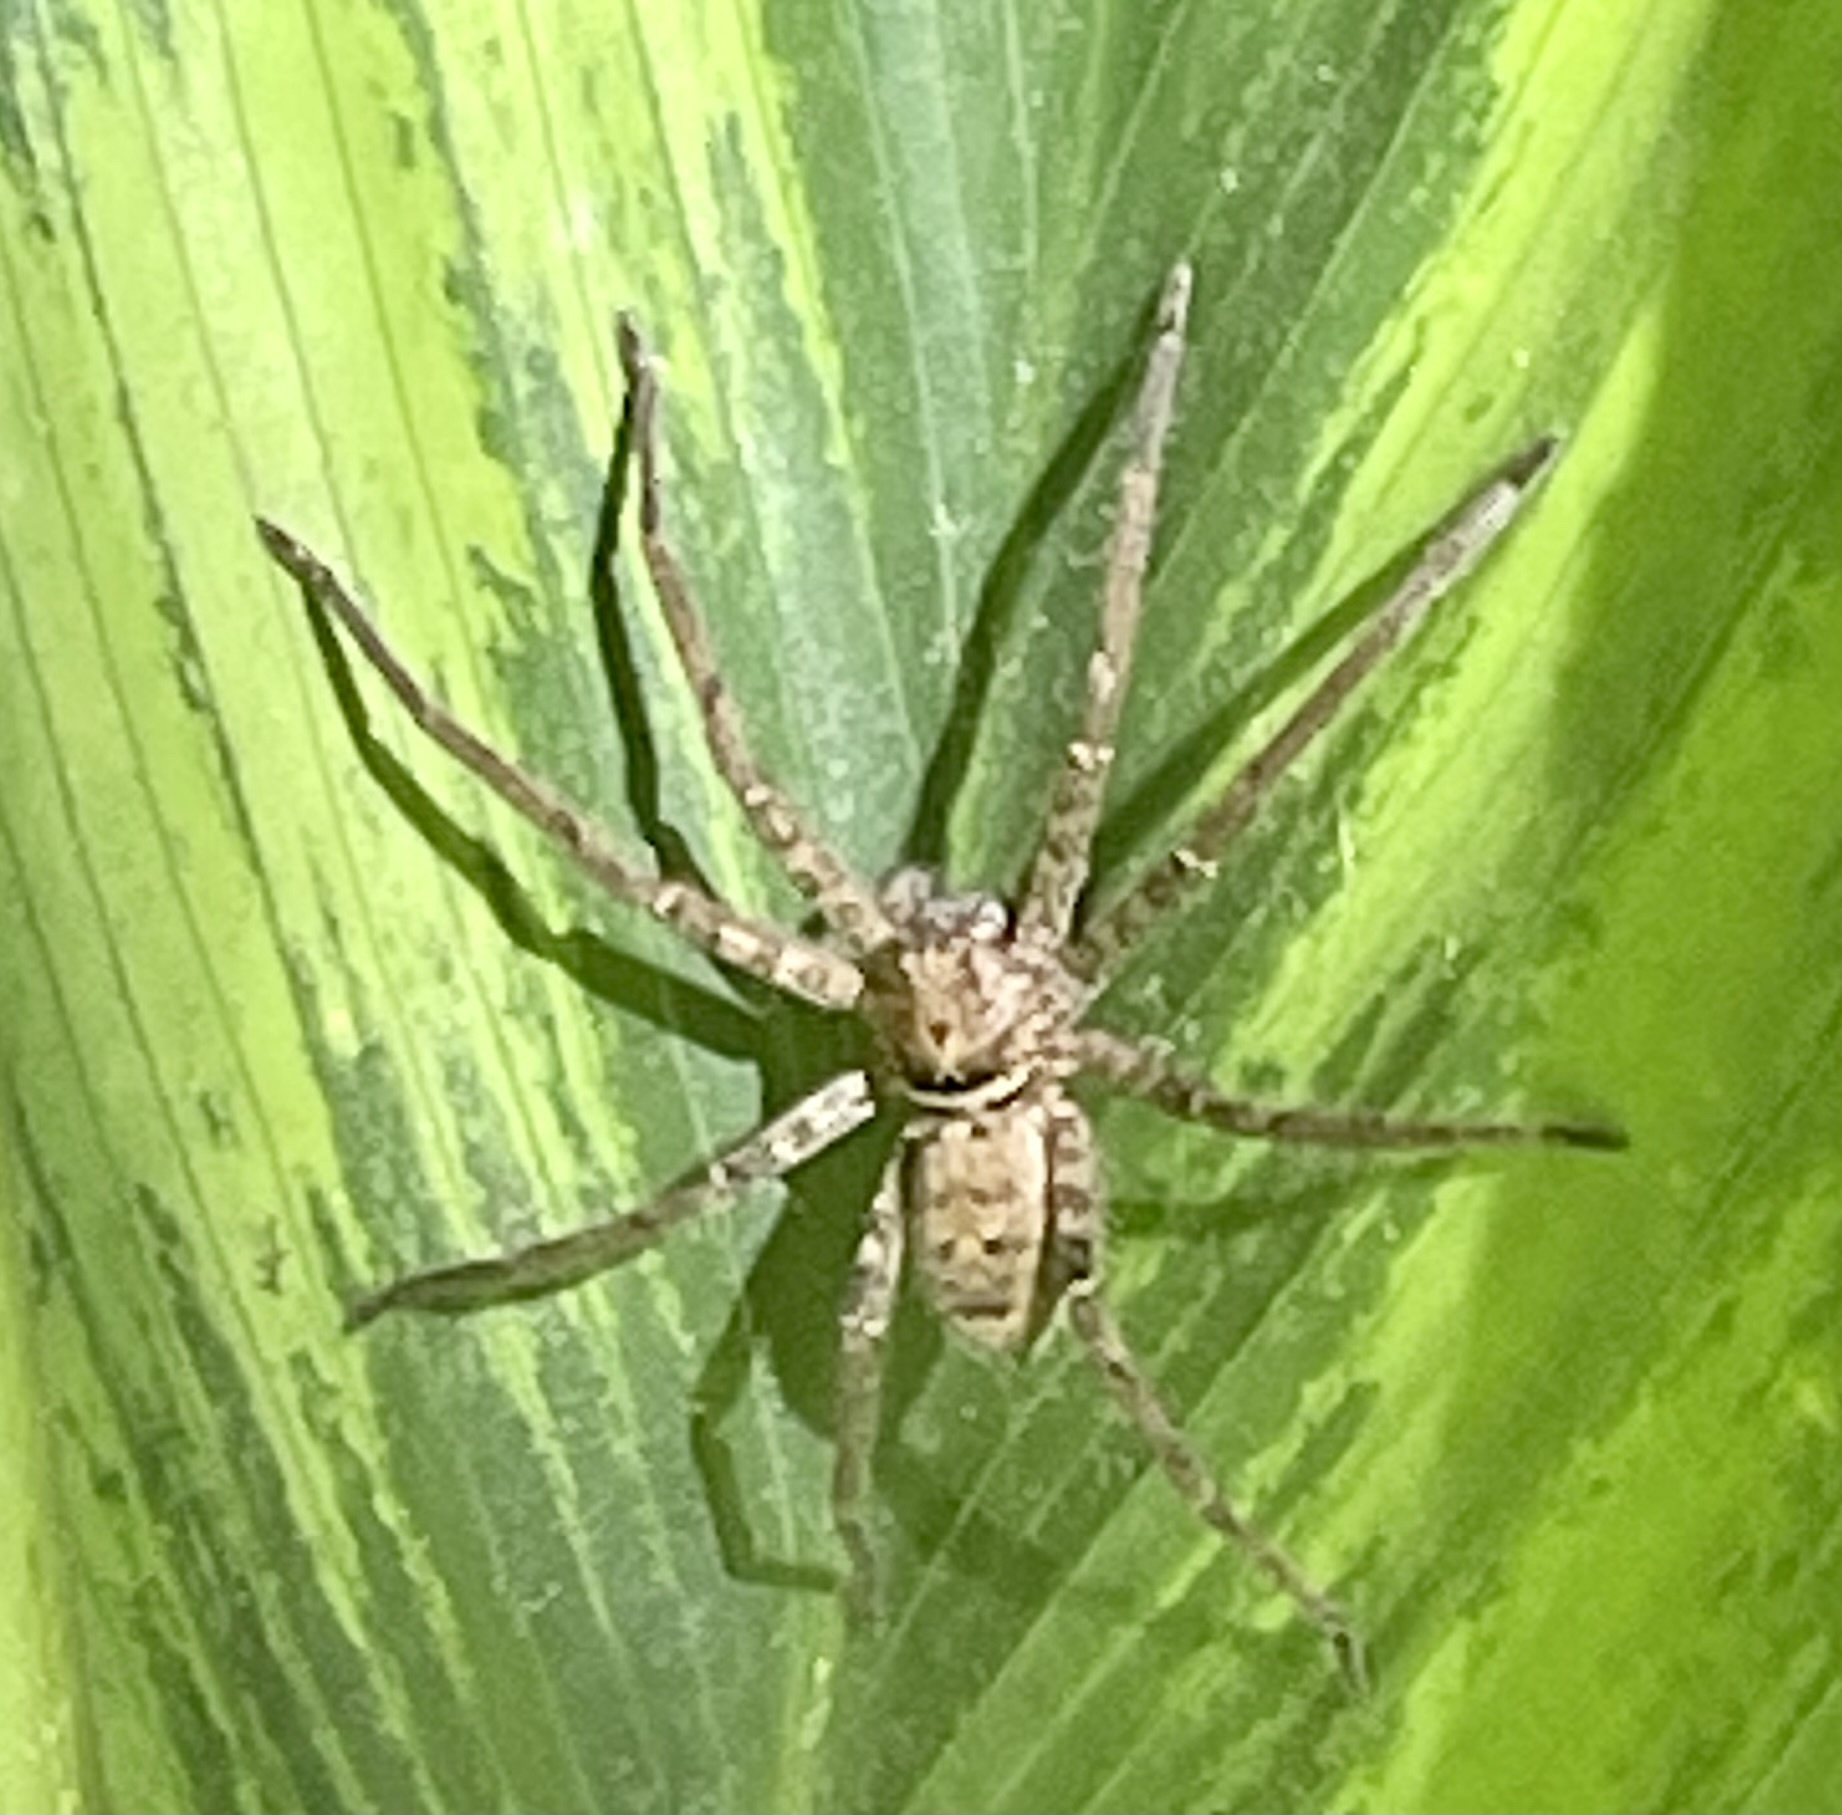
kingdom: Animalia
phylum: Arthropoda
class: Arachnida
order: Araneae
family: Sparassidae
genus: Heteropoda
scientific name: Heteropoda jugulans
